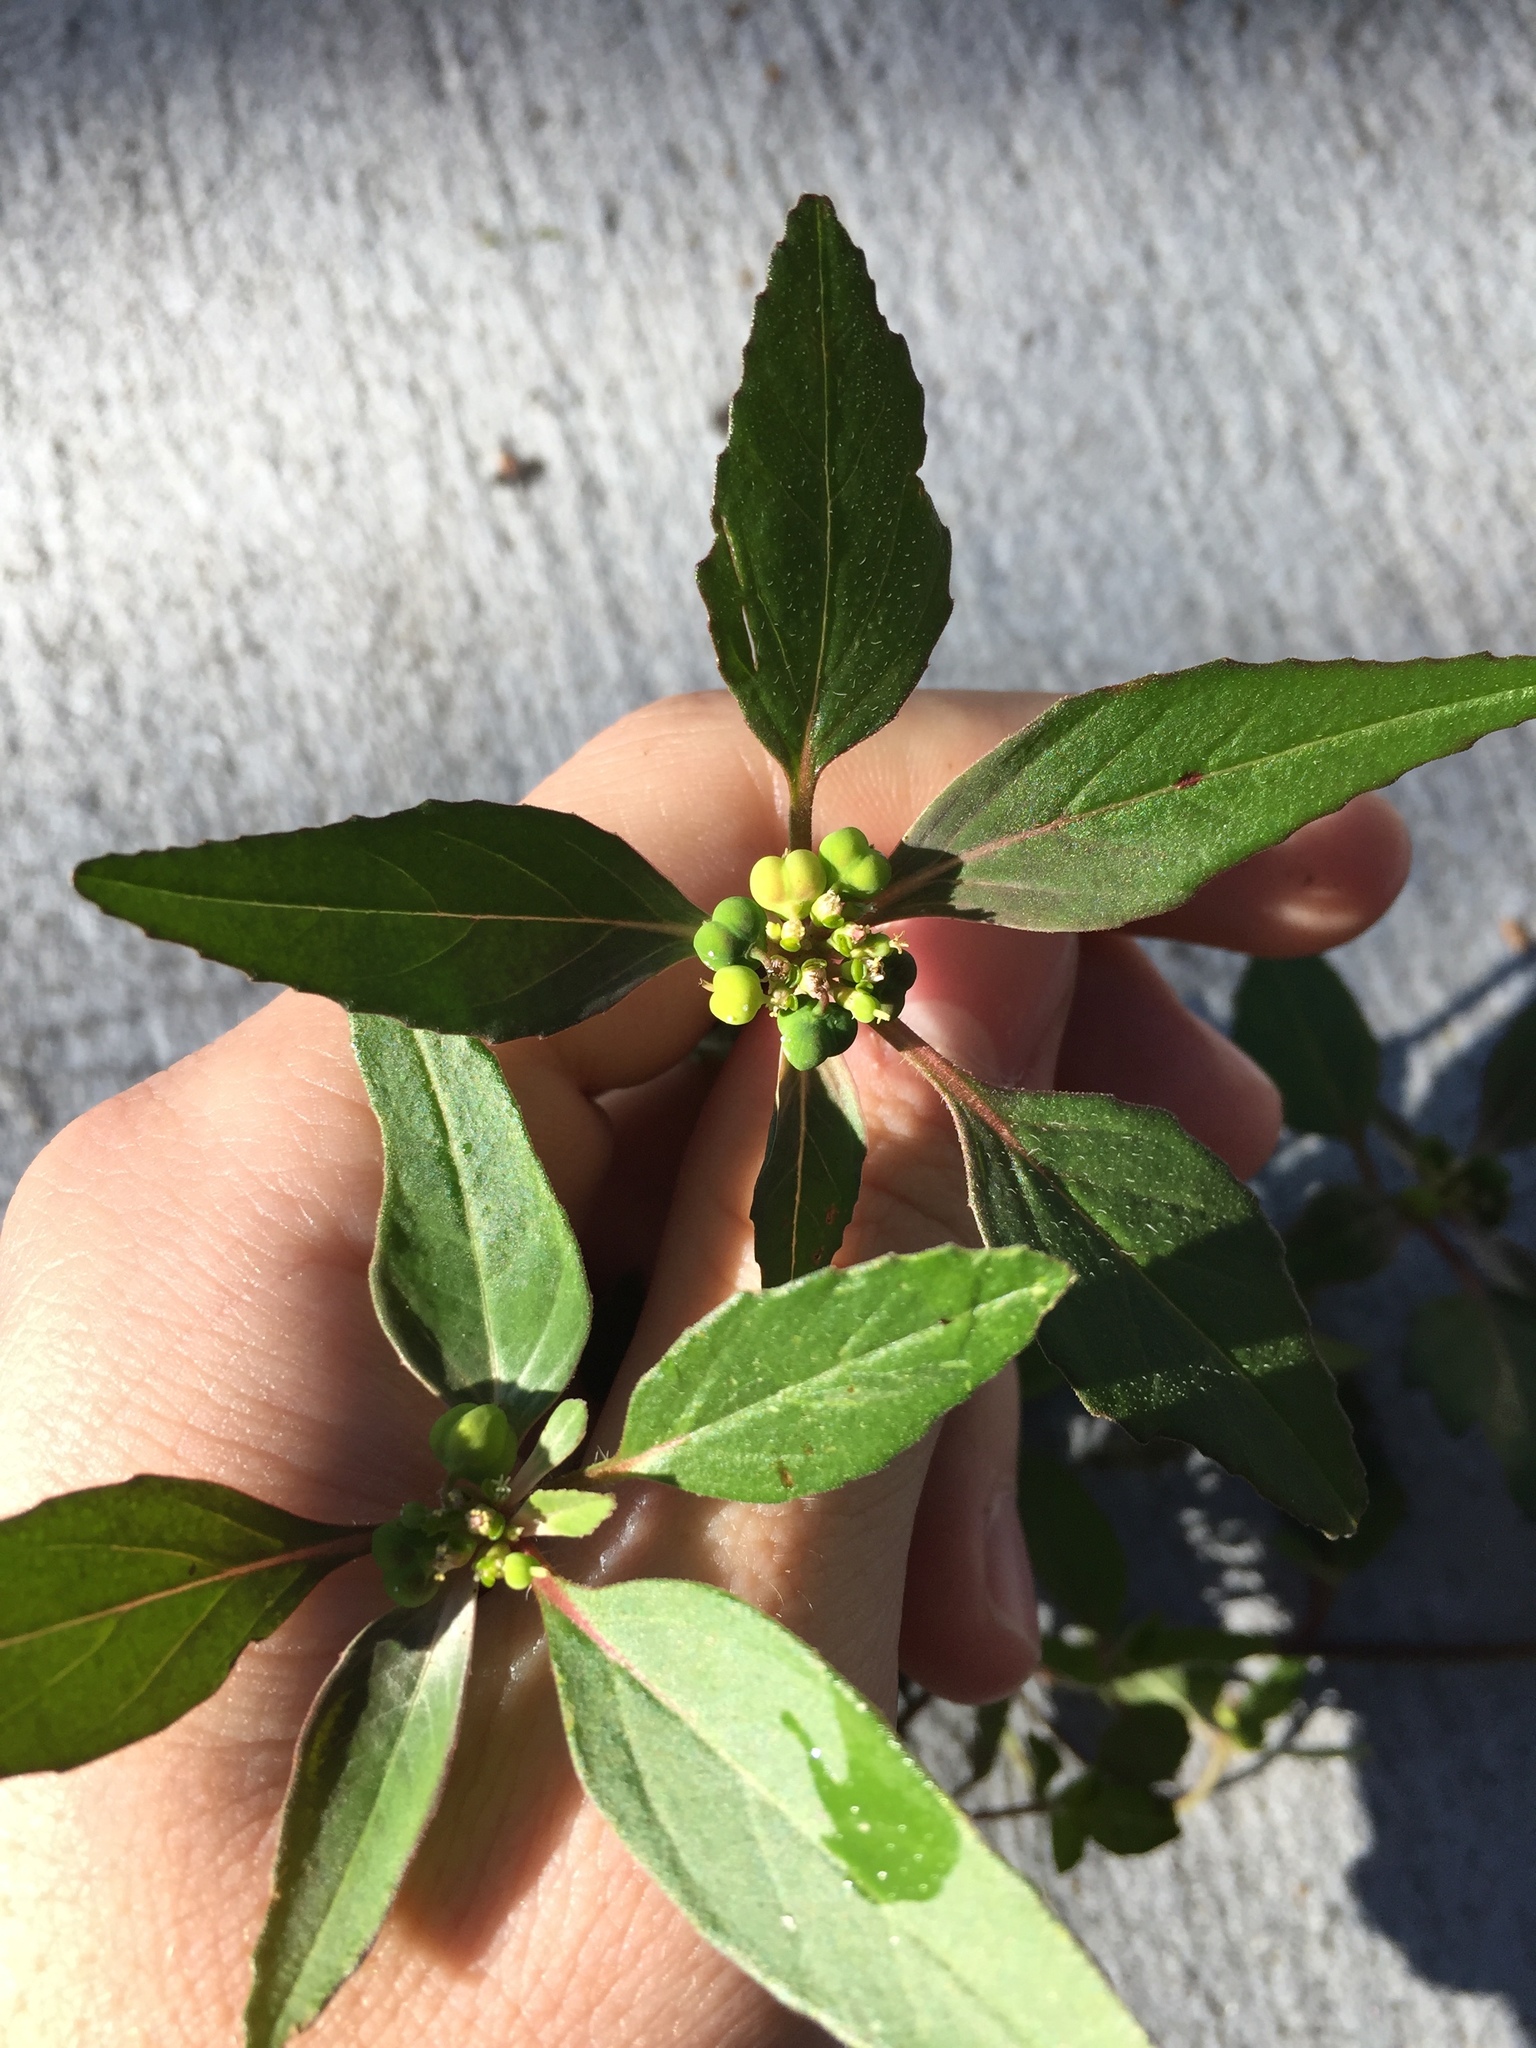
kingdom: Plantae
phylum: Tracheophyta
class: Magnoliopsida
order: Malpighiales
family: Euphorbiaceae
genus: Euphorbia
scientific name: Euphorbia dentata
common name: Dentate spurge
